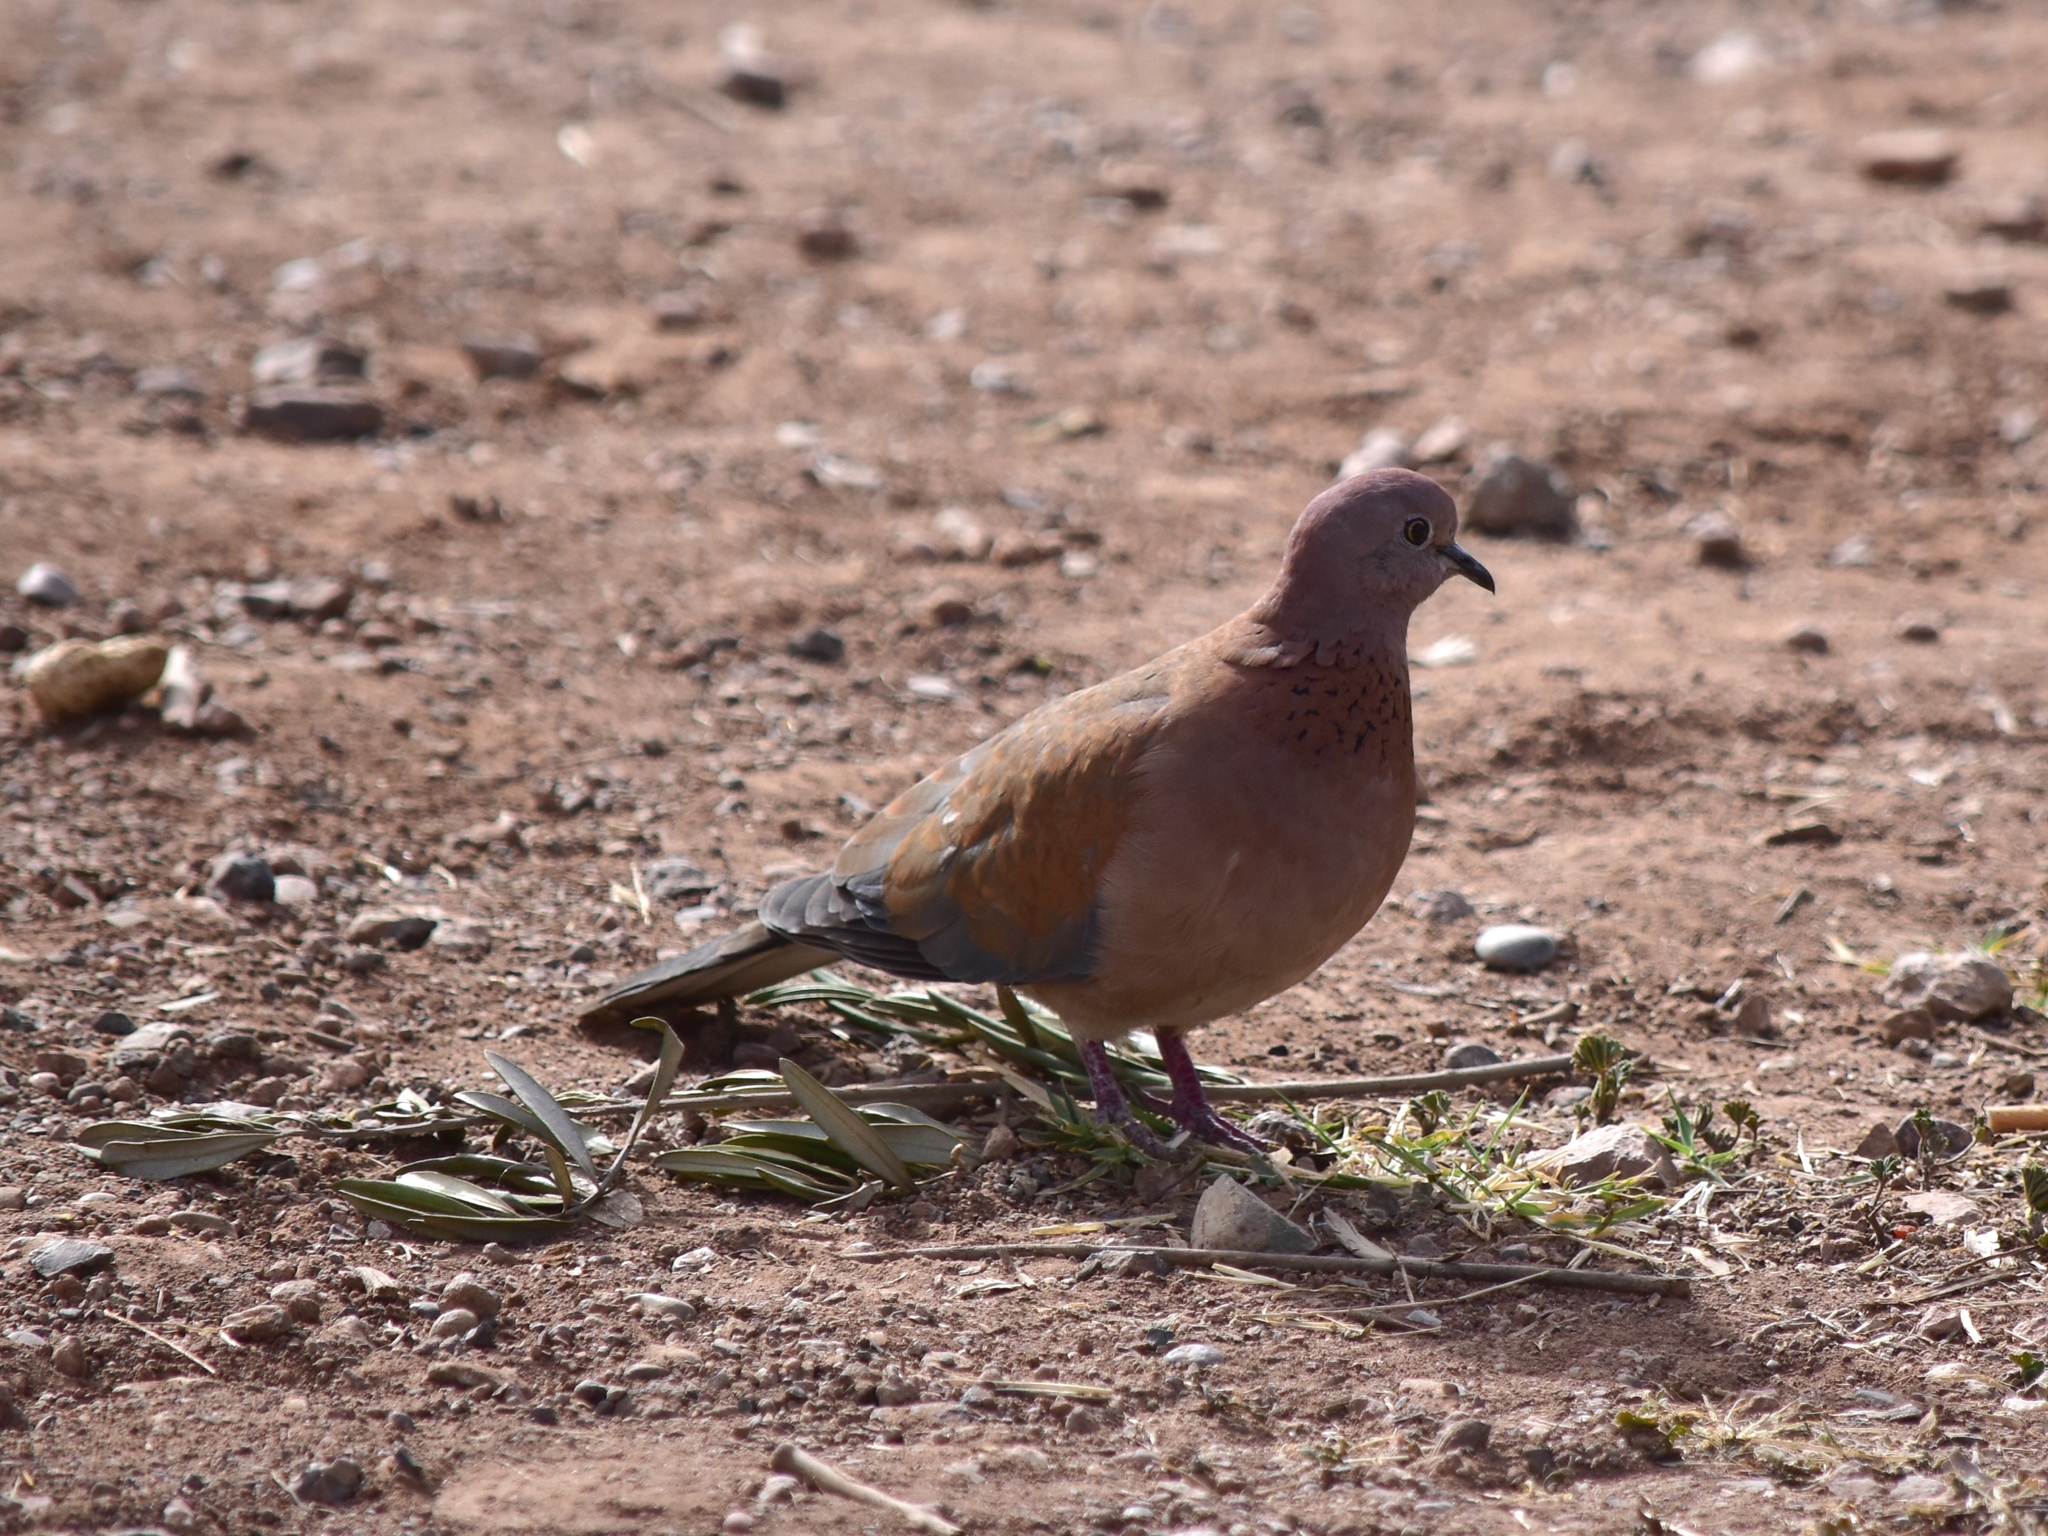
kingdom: Animalia
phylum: Chordata
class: Aves
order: Columbiformes
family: Columbidae
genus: Spilopelia
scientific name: Spilopelia senegalensis
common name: Laughing dove
